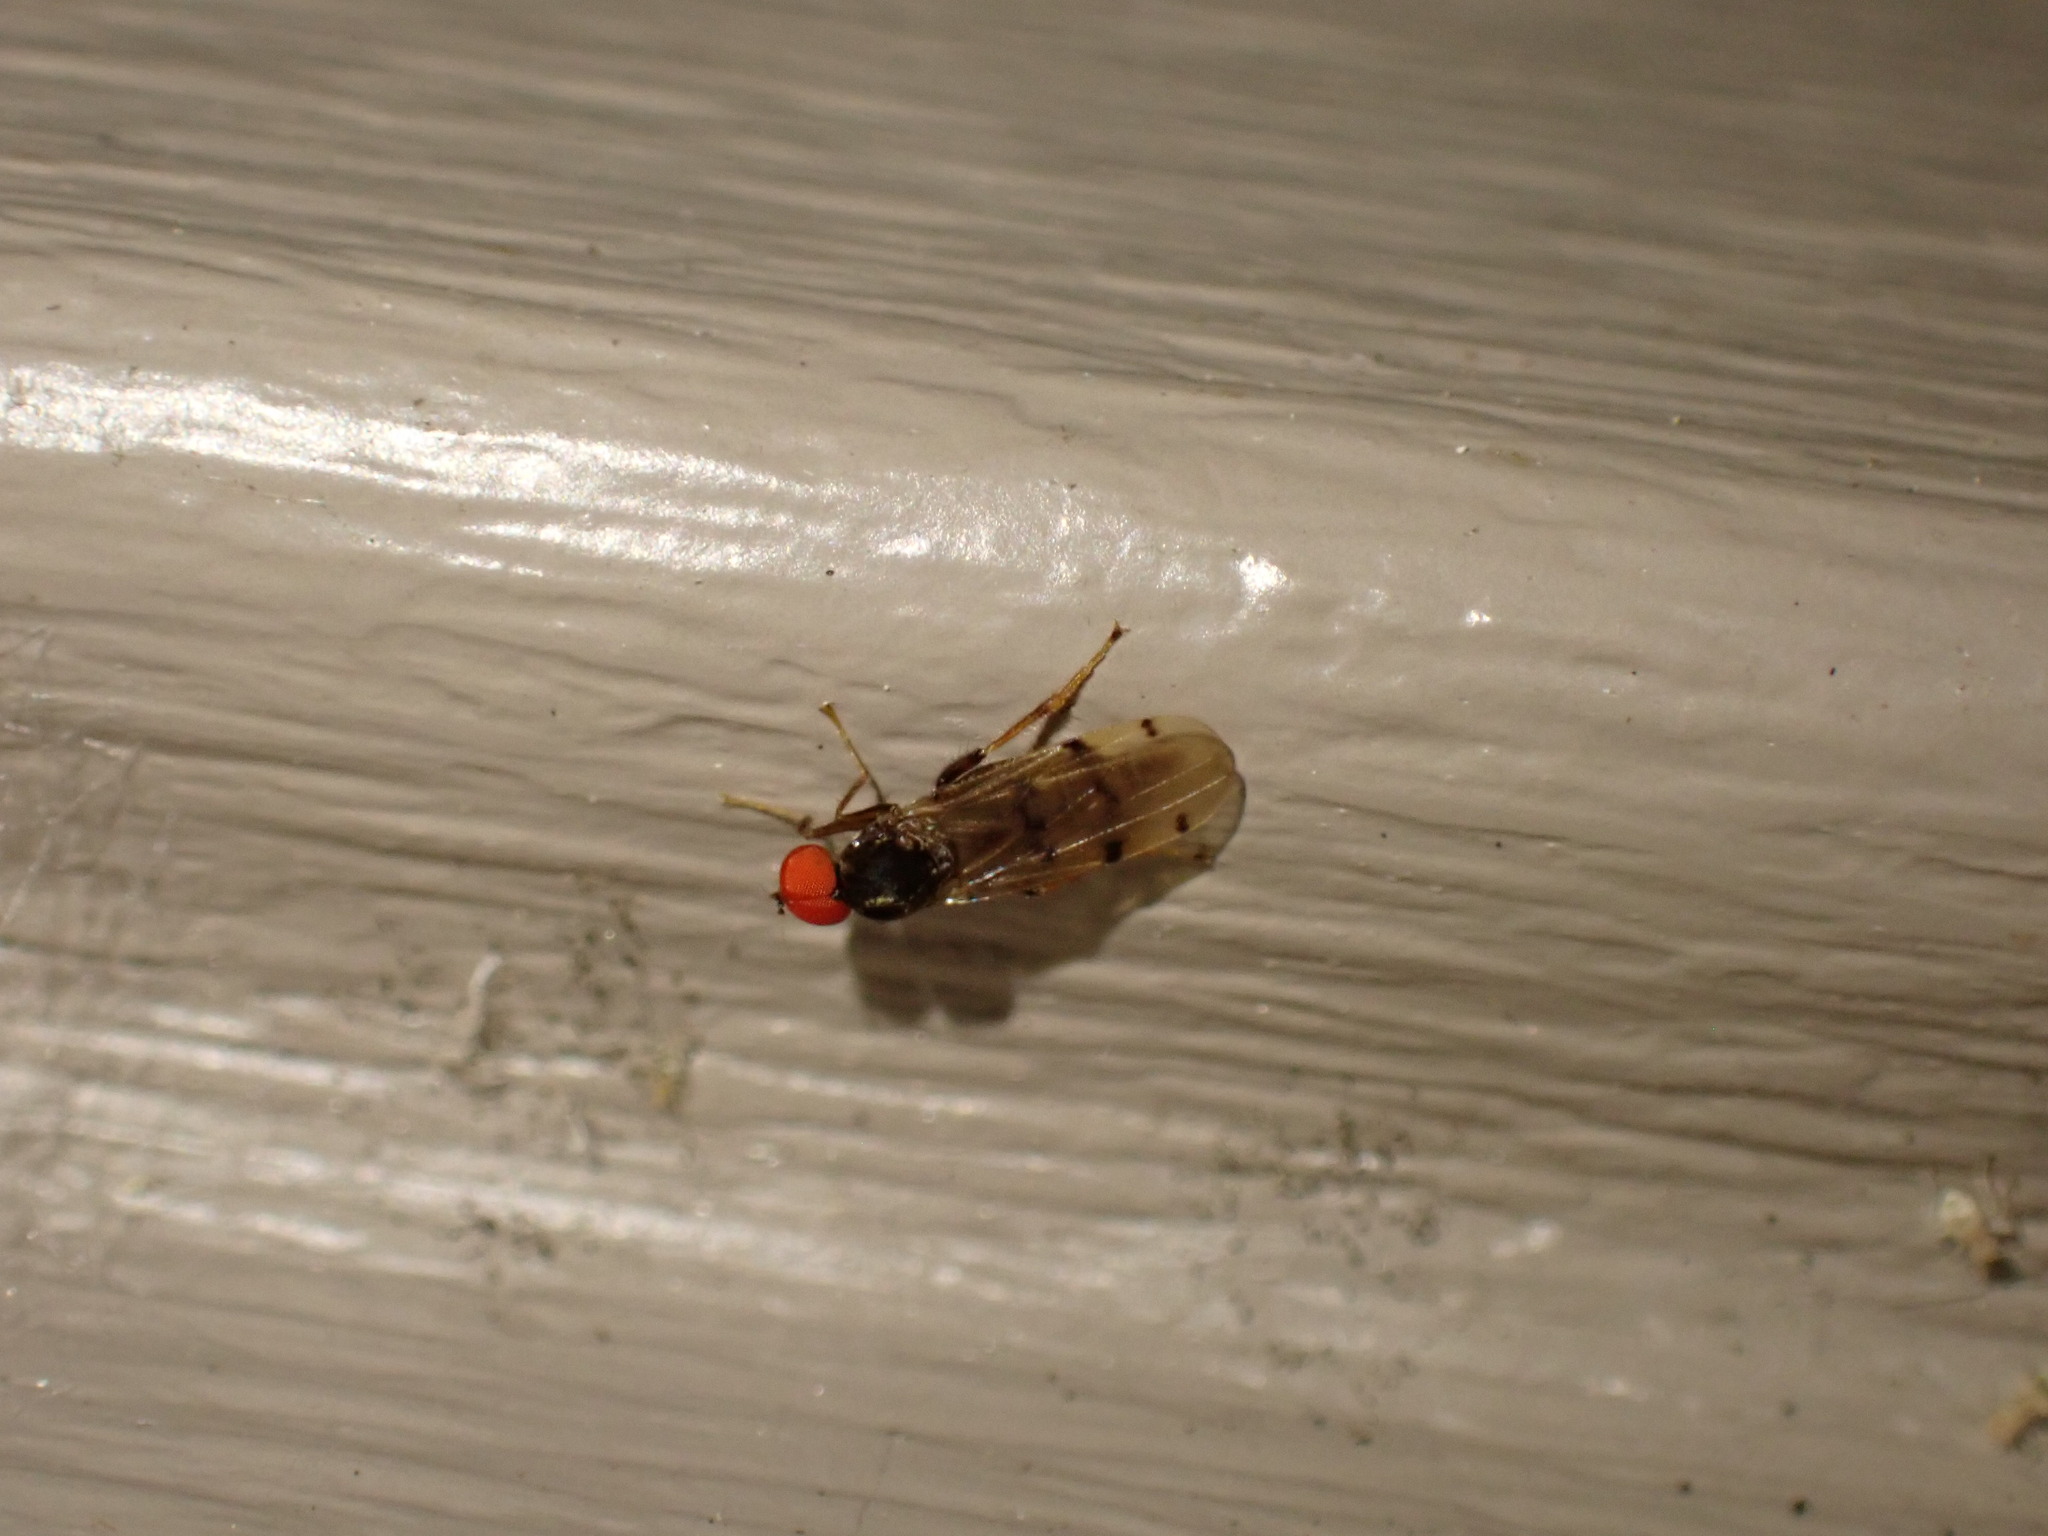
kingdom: Animalia
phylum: Arthropoda
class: Insecta
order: Diptera
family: Hybotidae
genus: Syneches
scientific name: Syneches simplex
